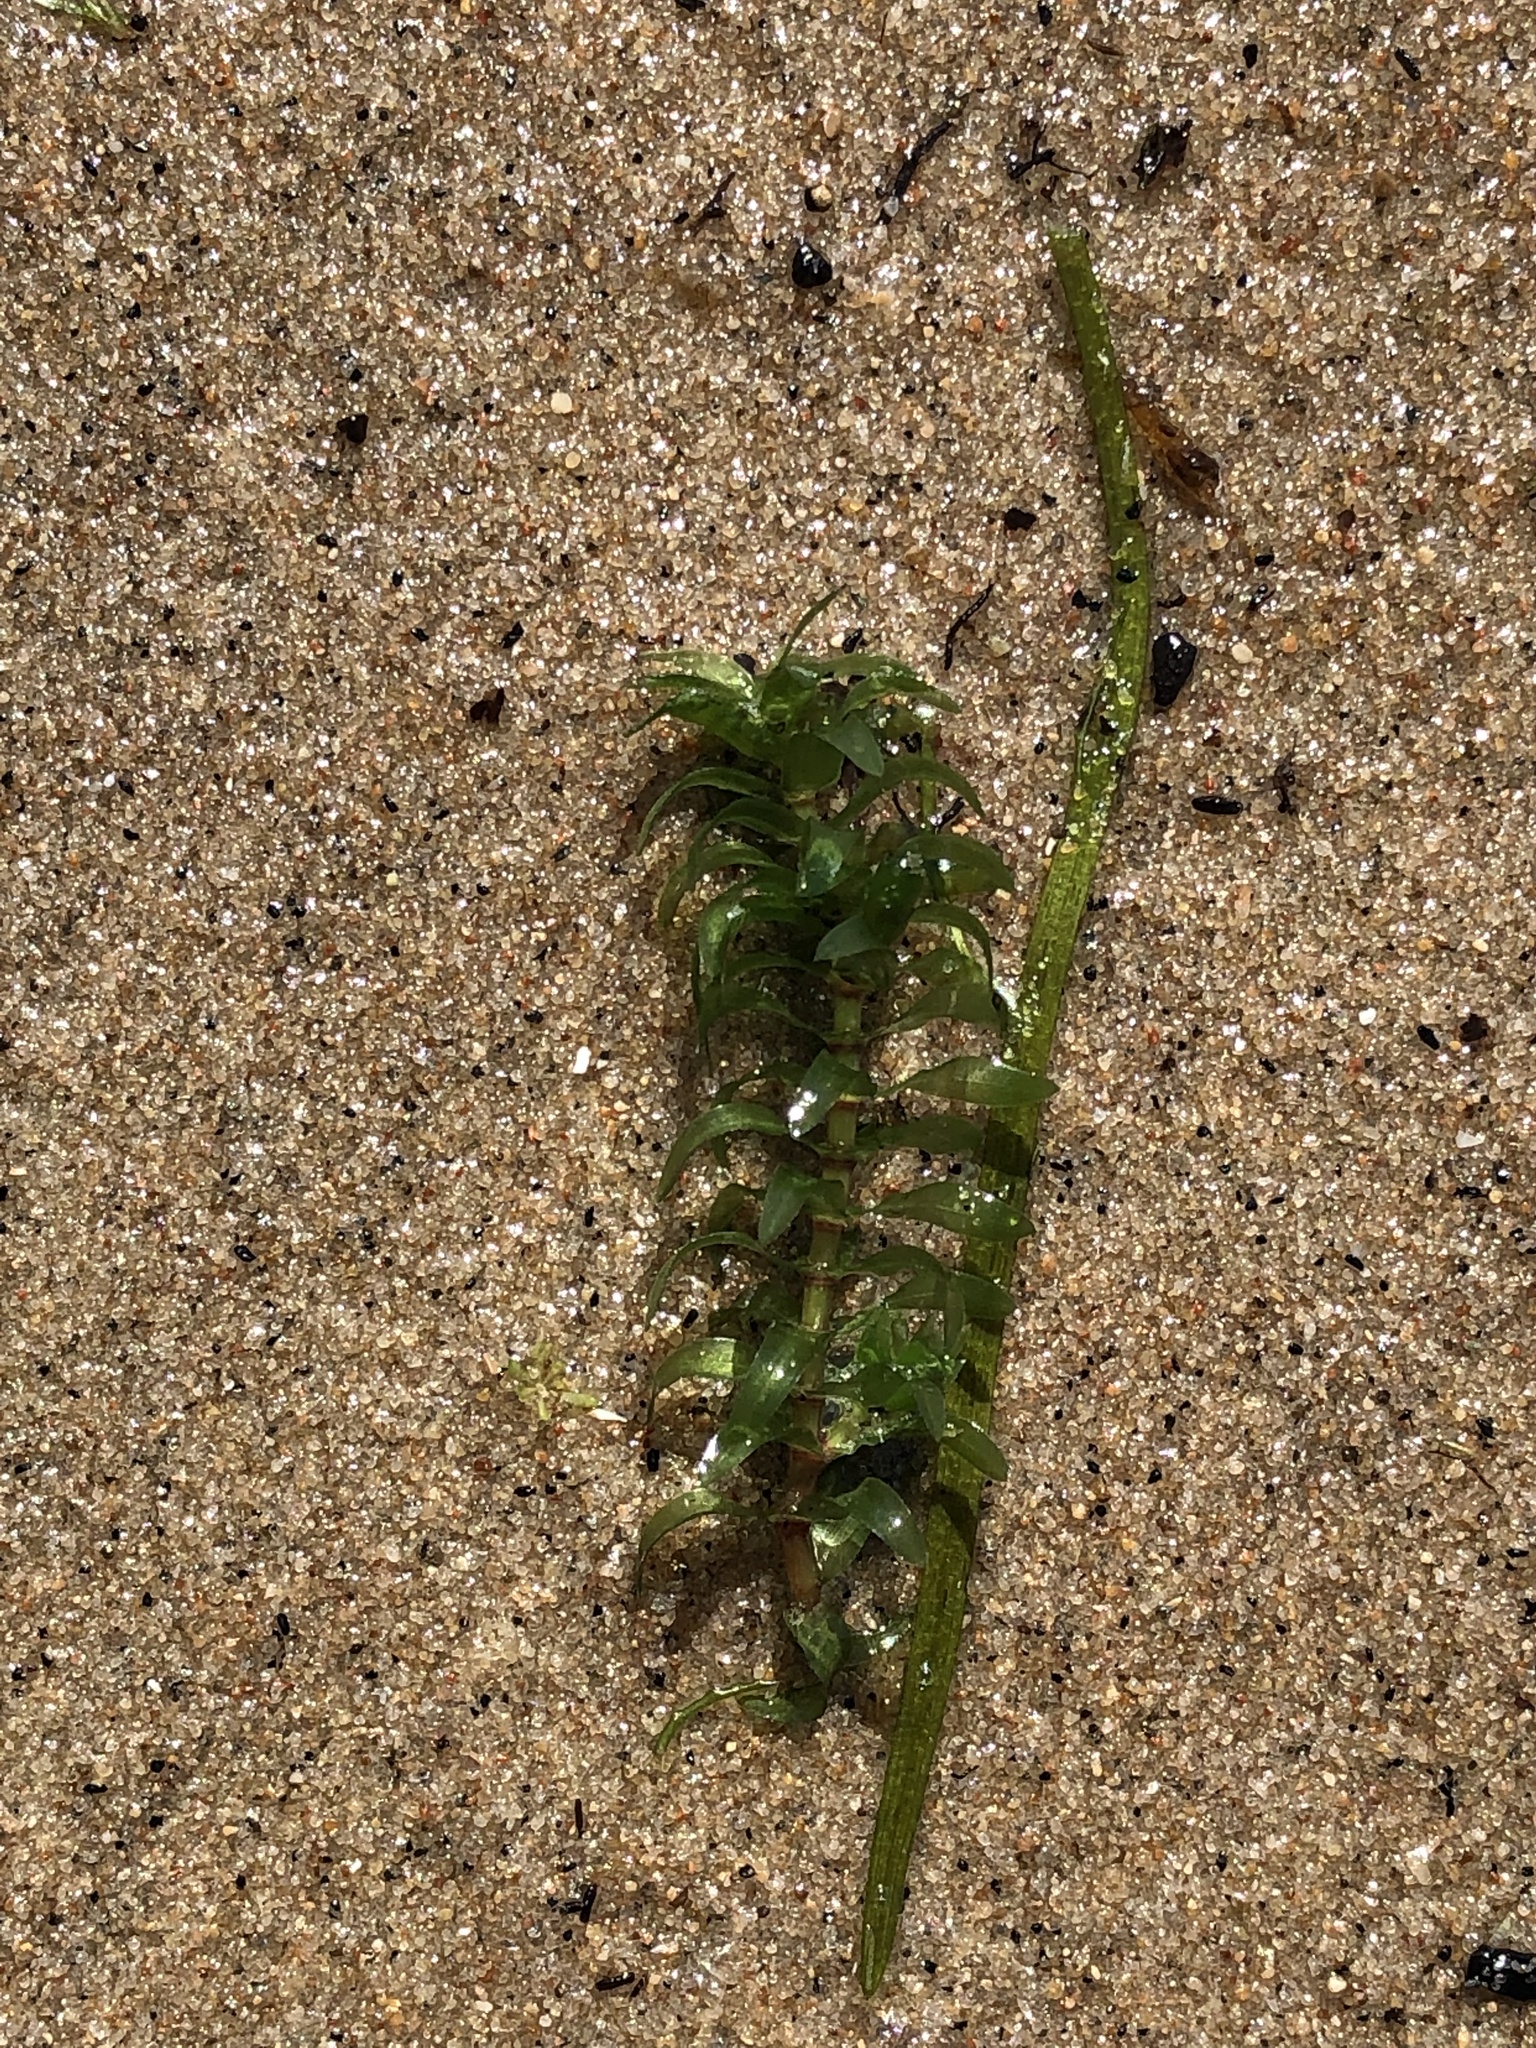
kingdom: Plantae
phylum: Tracheophyta
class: Liliopsida
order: Alismatales
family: Hydrocharitaceae
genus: Elodea
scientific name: Elodea canadensis
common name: Canadian waterweed
